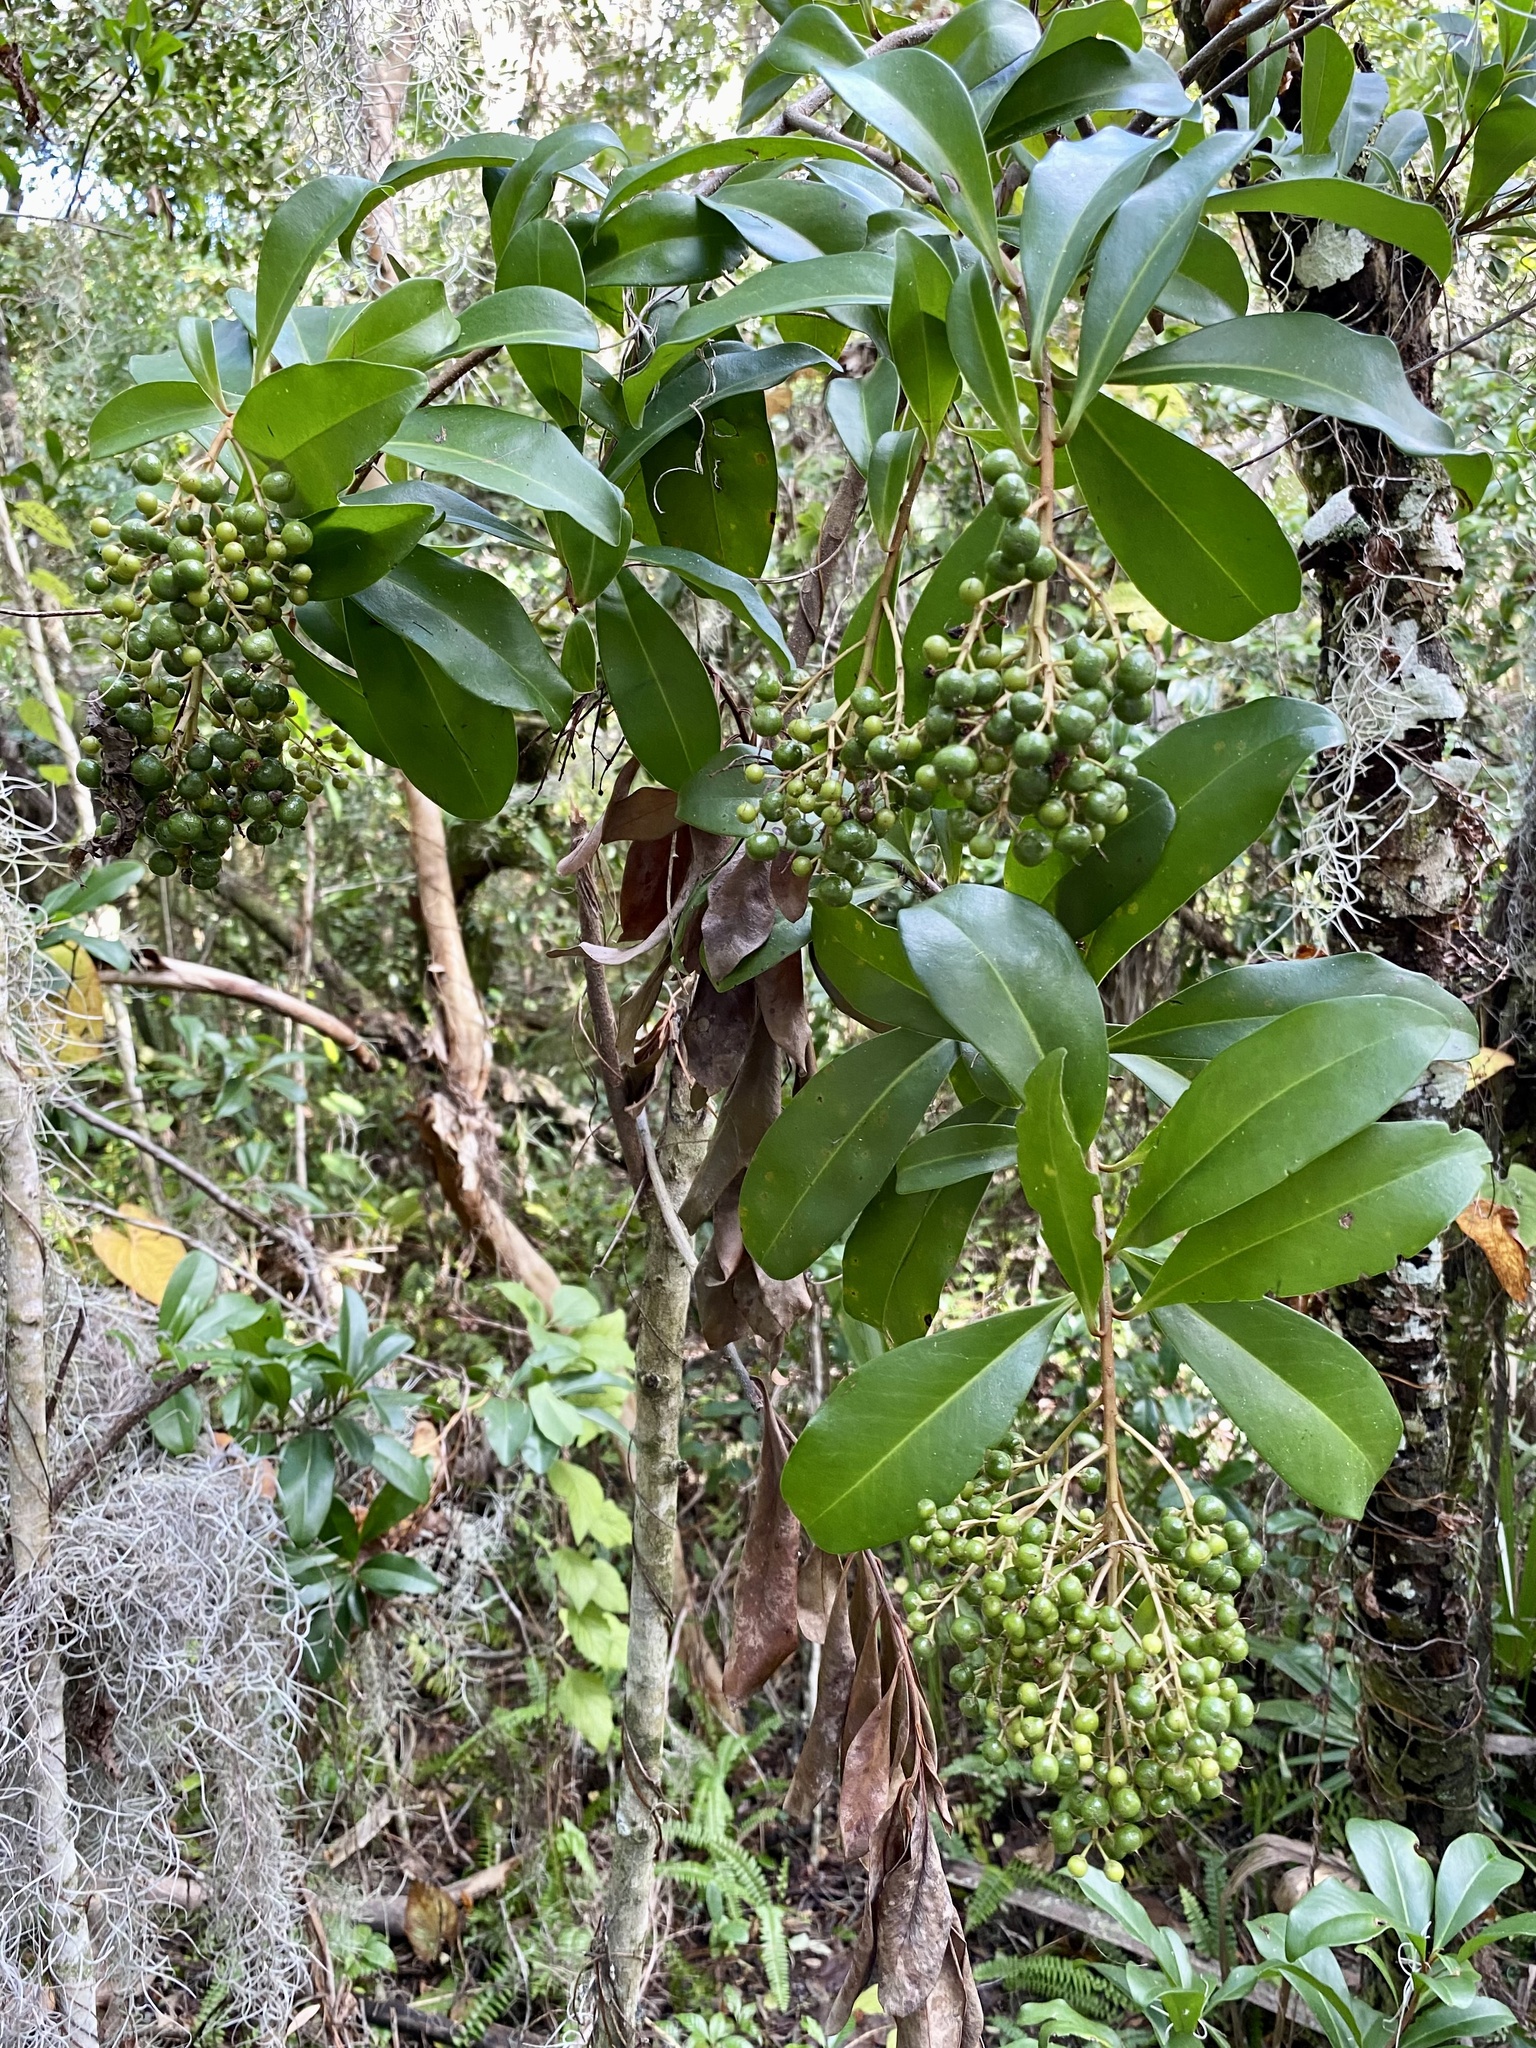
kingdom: Plantae
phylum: Tracheophyta
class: Magnoliopsida
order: Ericales
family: Primulaceae
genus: Ardisia
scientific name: Ardisia escallonioides
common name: Island marlberry
